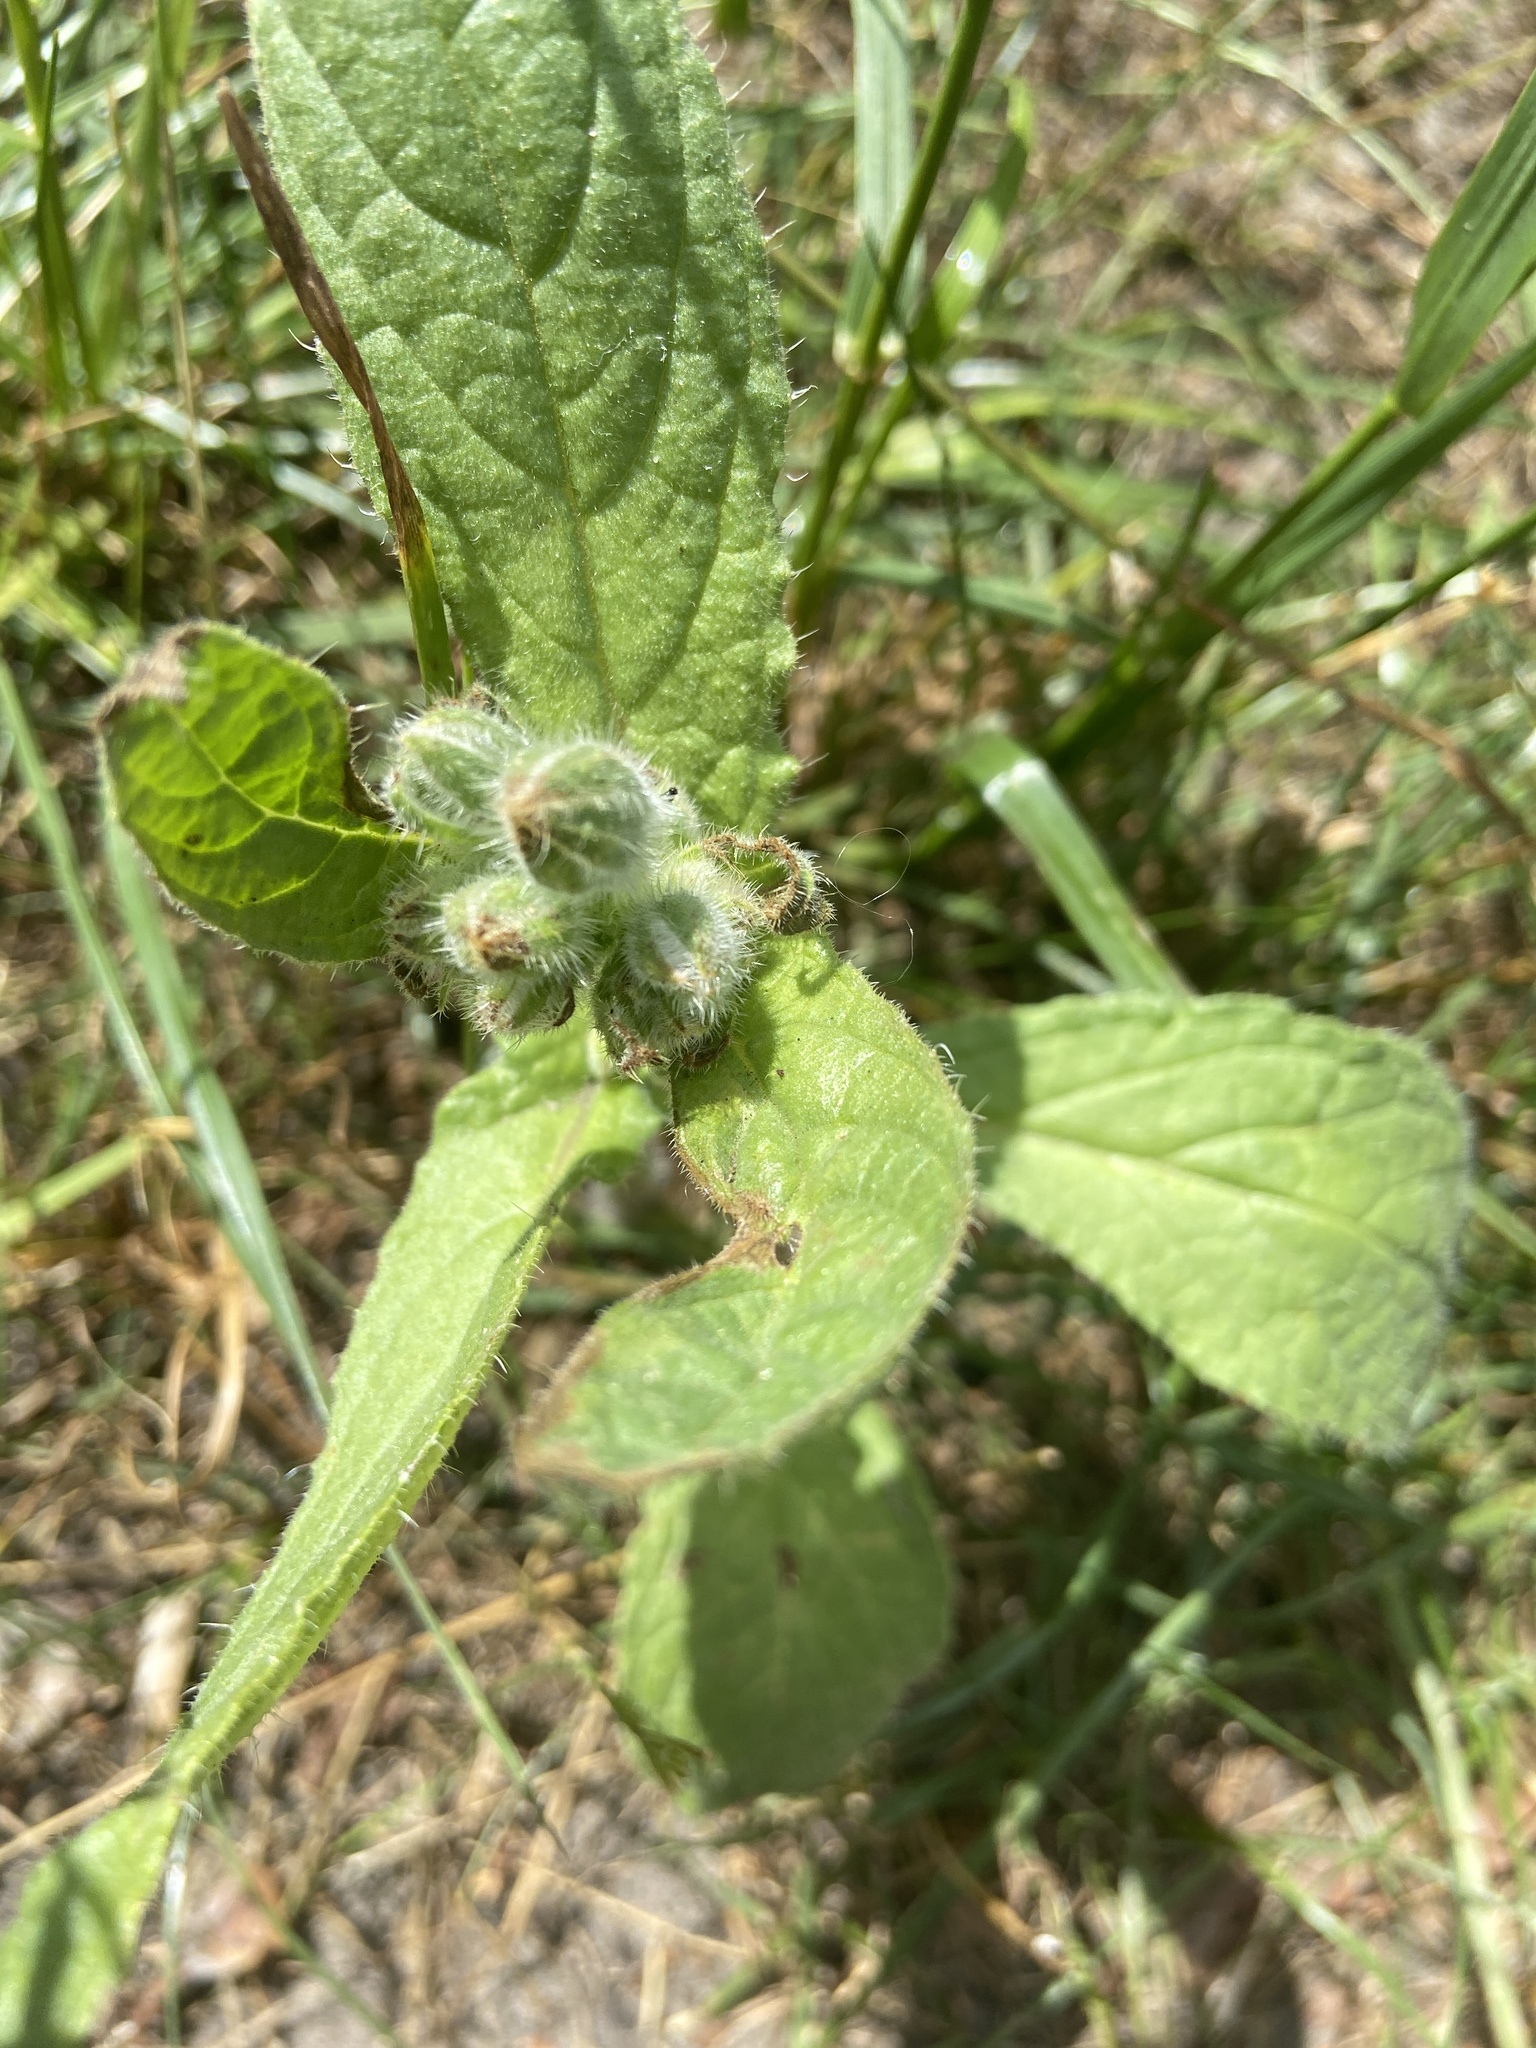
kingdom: Plantae
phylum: Tracheophyta
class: Magnoliopsida
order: Boraginales
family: Boraginaceae
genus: Borago
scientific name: Borago officinalis
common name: Borage
